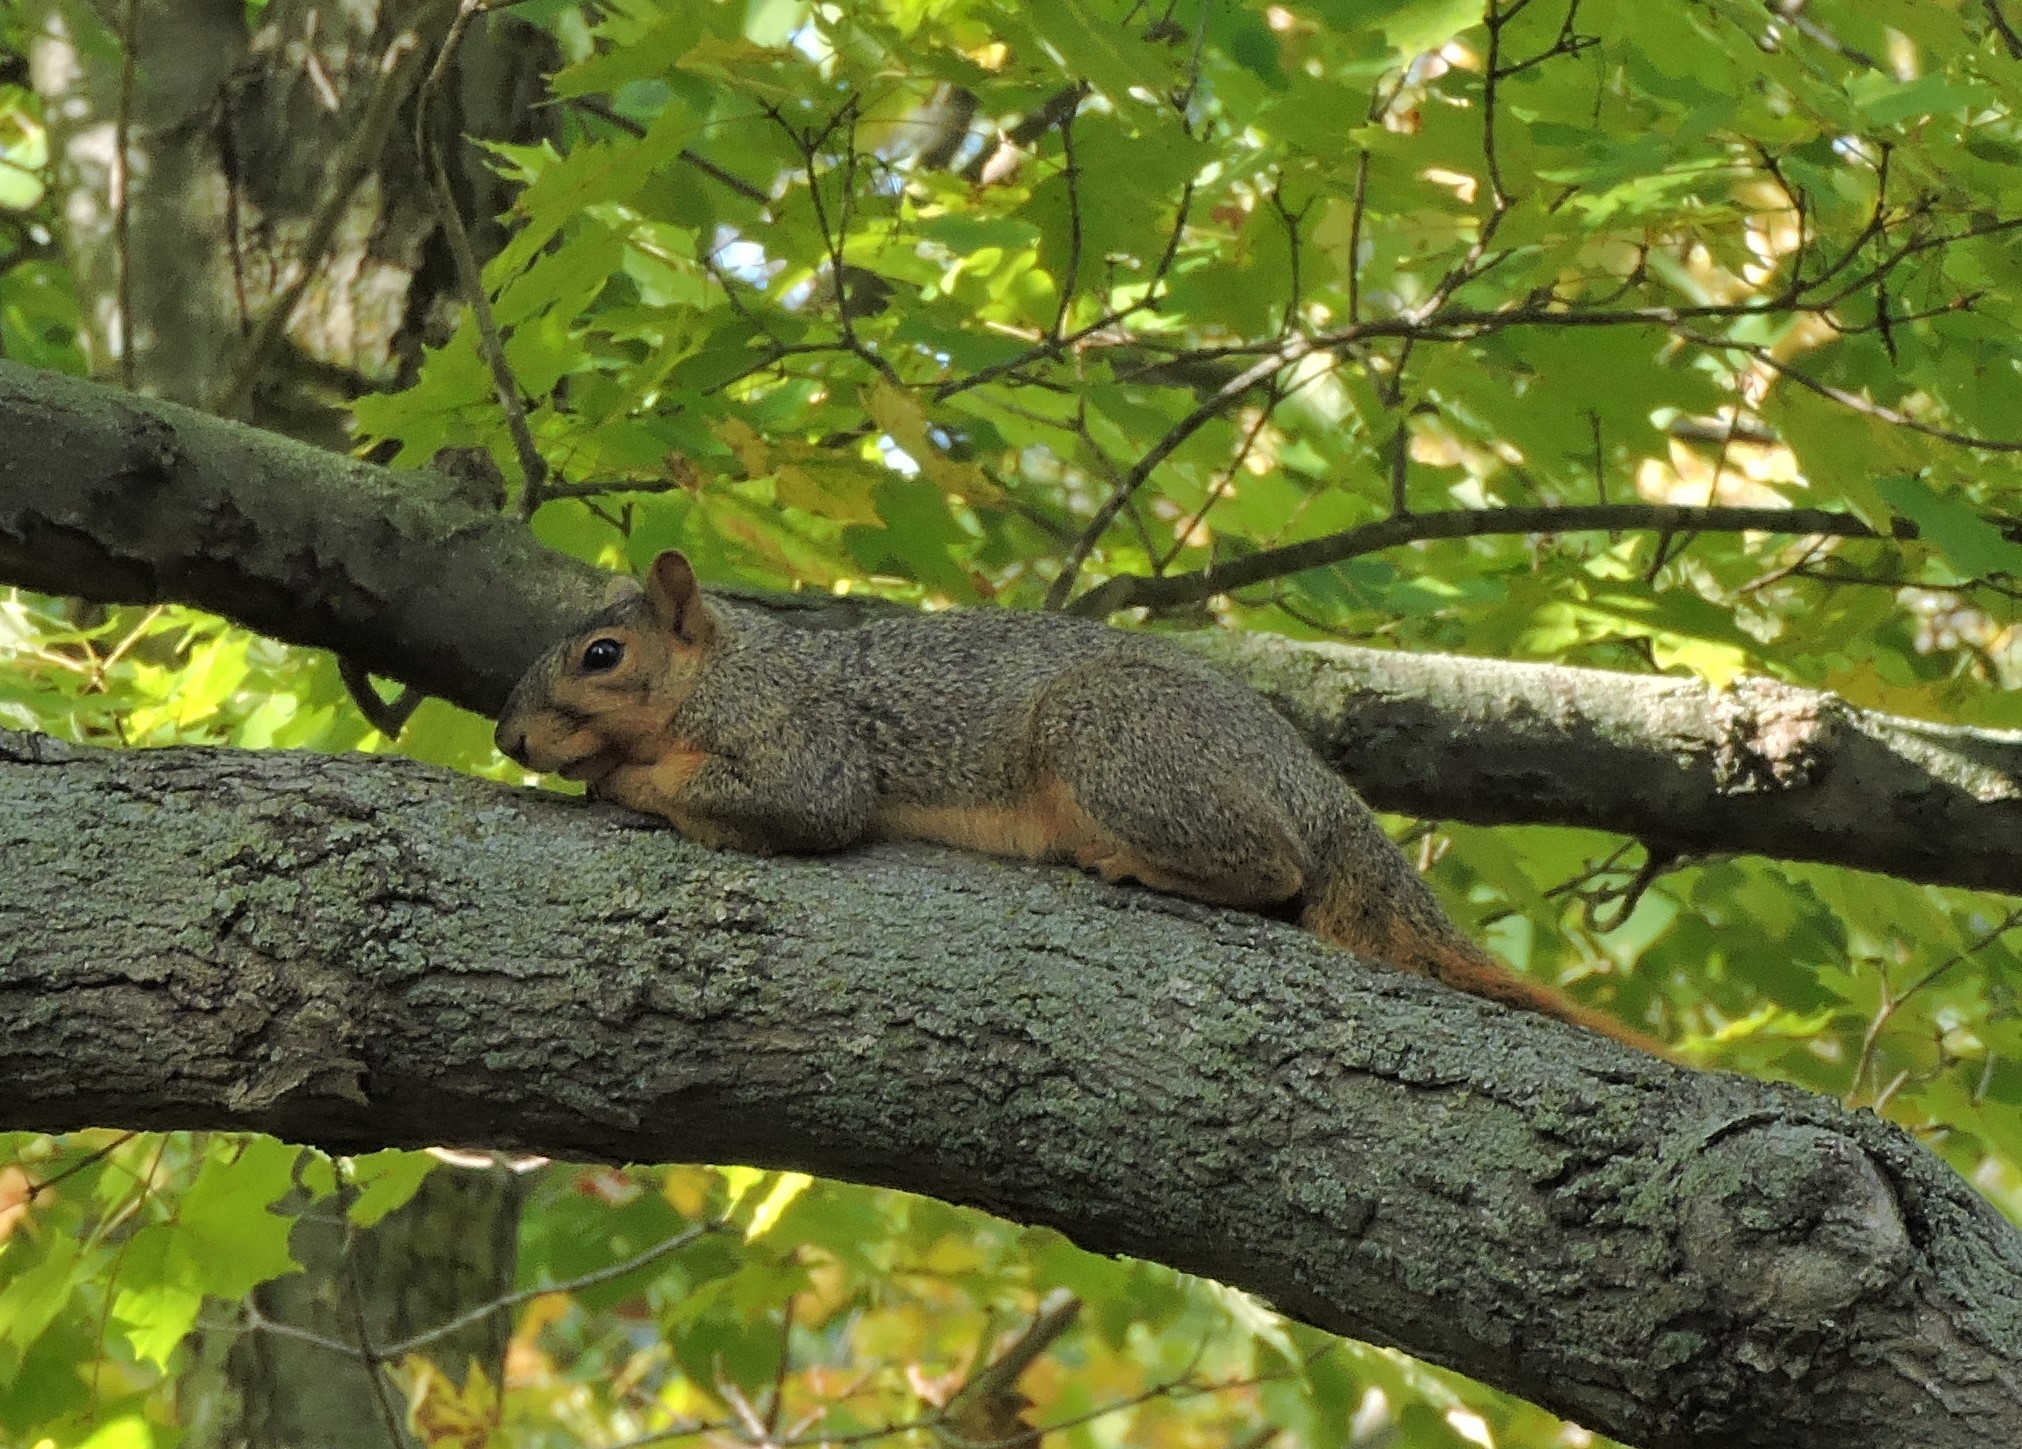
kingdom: Animalia
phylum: Chordata
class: Mammalia
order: Rodentia
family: Sciuridae
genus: Sciurus
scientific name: Sciurus niger
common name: Fox squirrel
